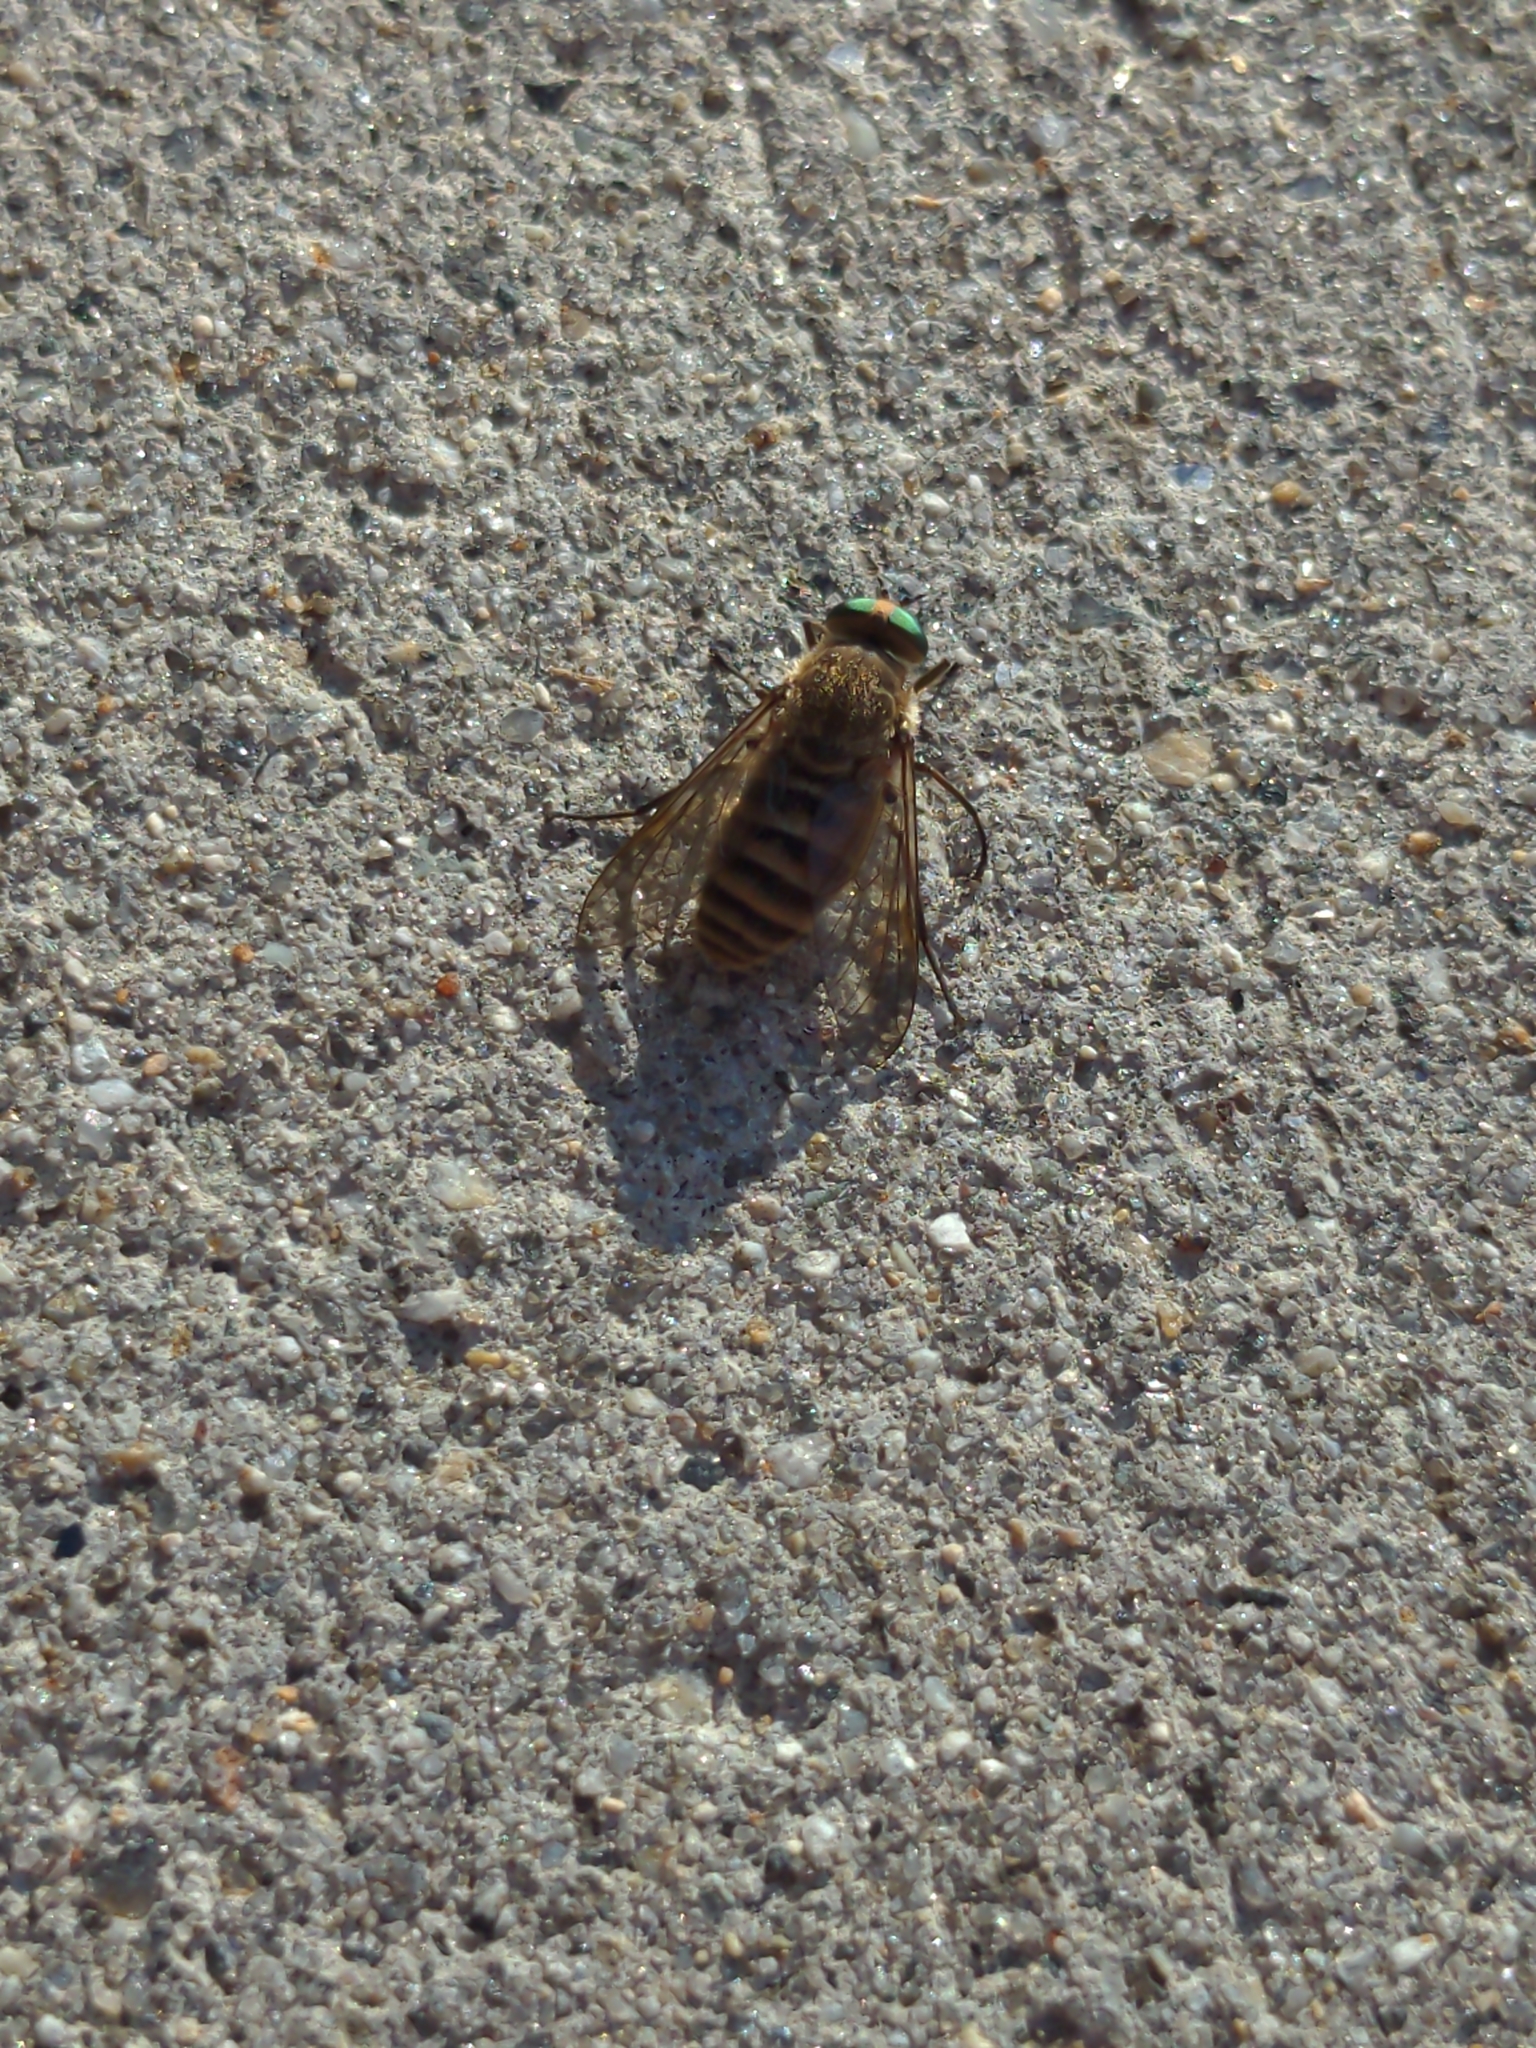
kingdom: Animalia
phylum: Arthropoda
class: Insecta
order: Diptera
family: Tabanidae
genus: Stonemyia
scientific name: Stonemyia tranquilla
